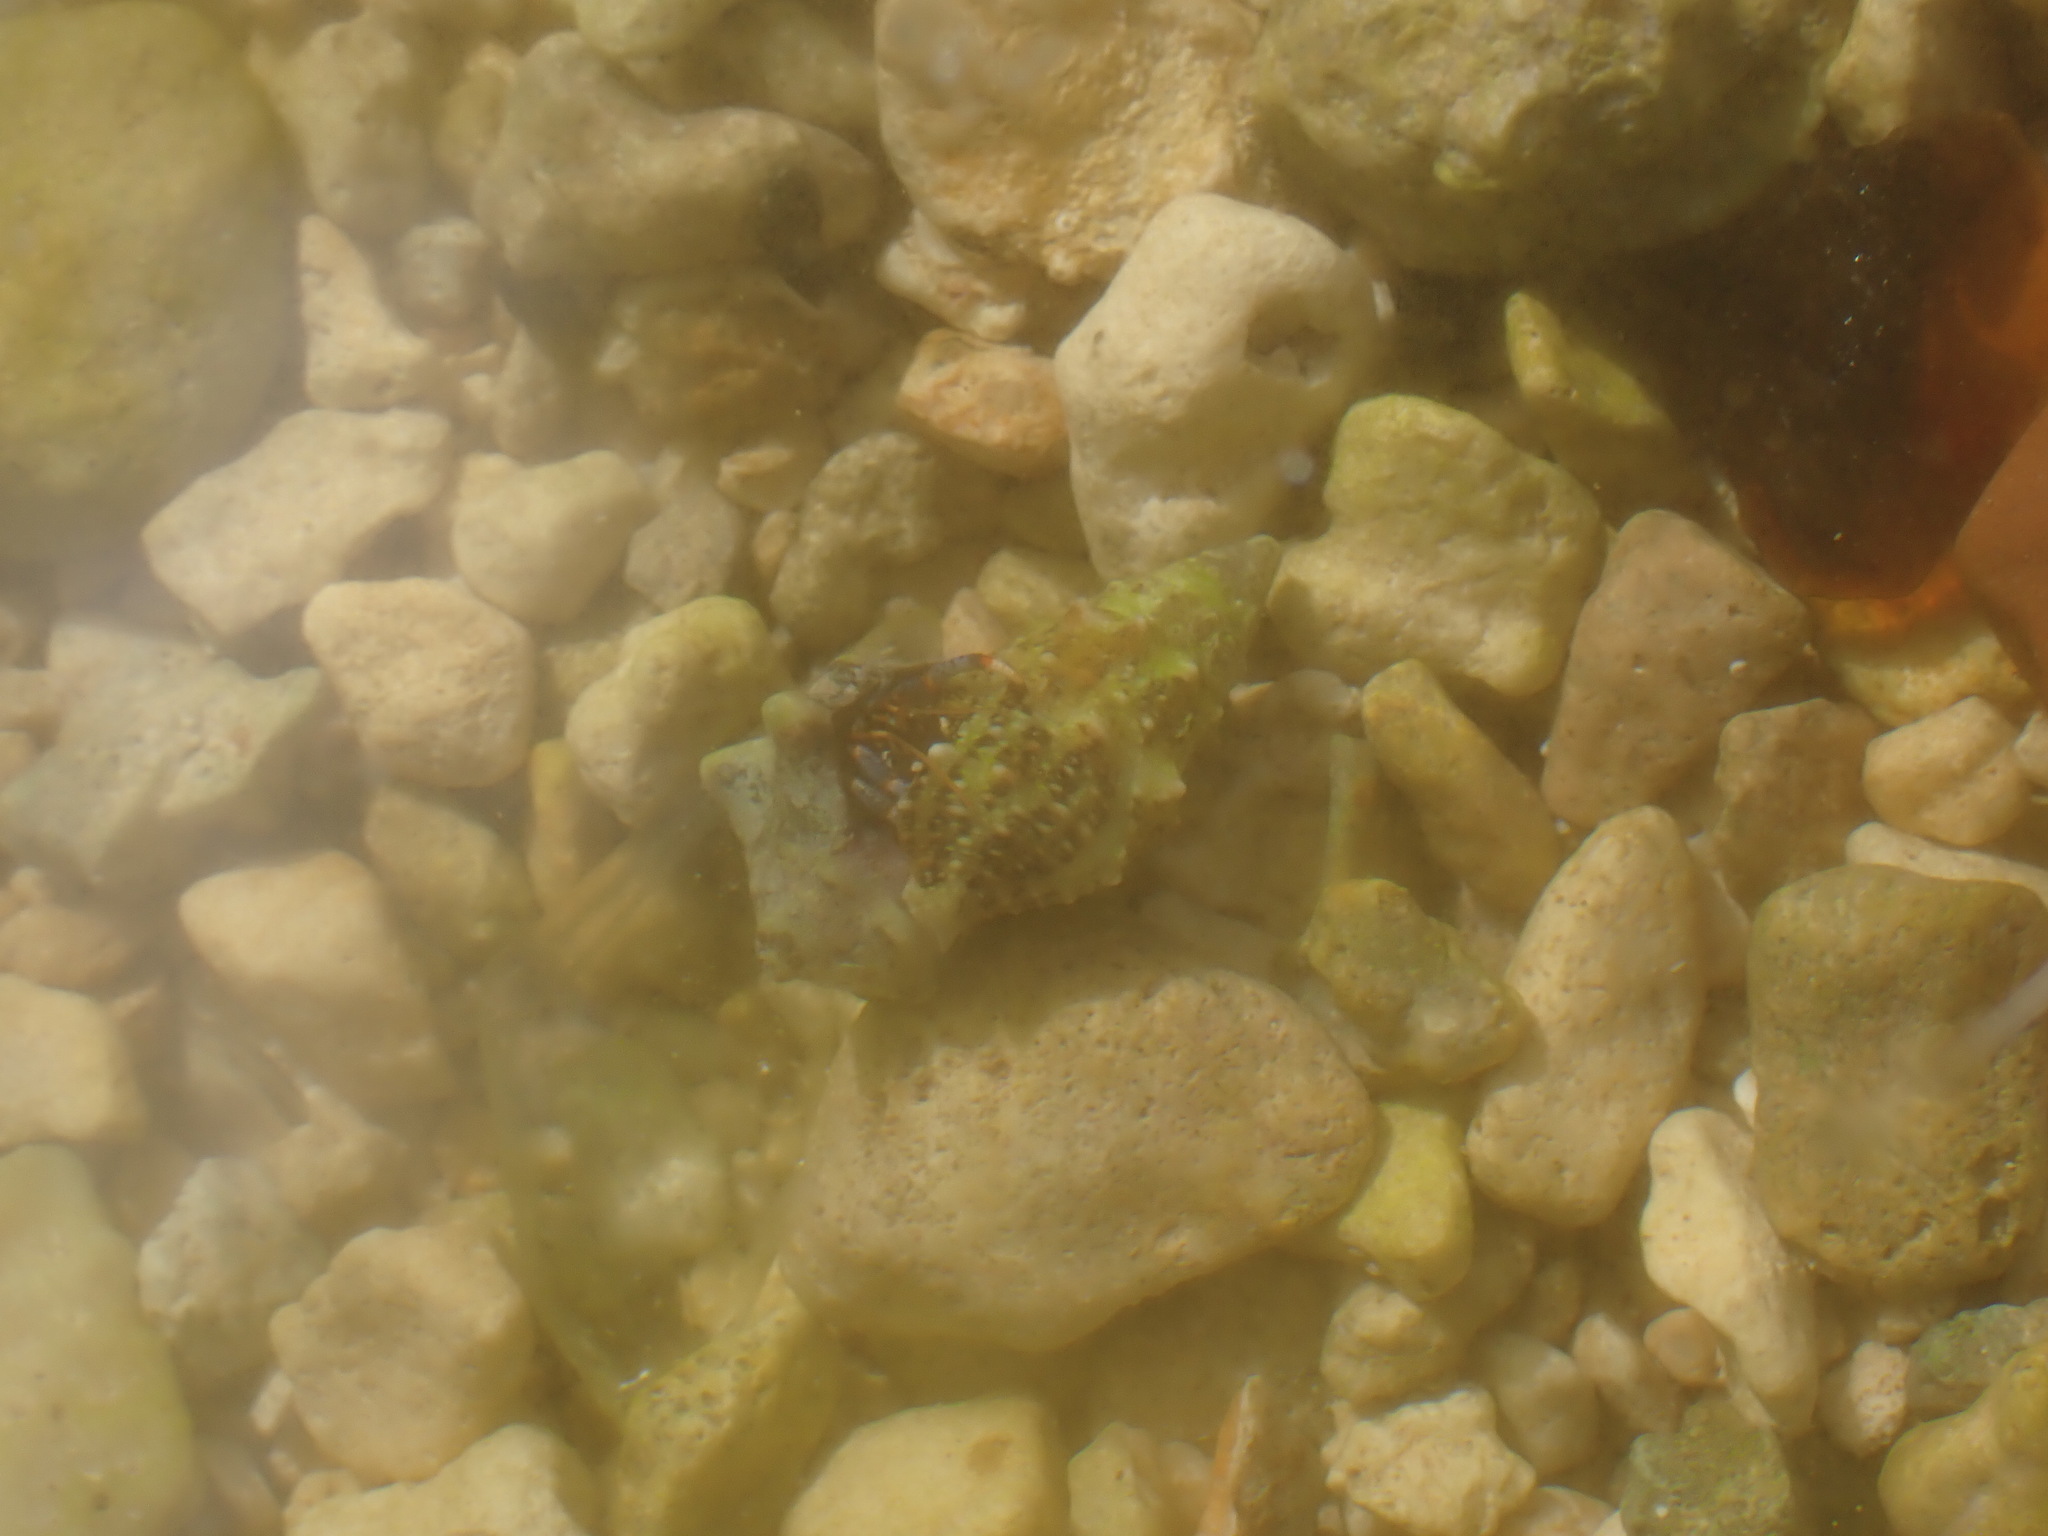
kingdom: Animalia
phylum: Arthropoda
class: Malacostraca
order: Decapoda
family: Diogenidae
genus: Clibanarius
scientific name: Clibanarius tricolor
